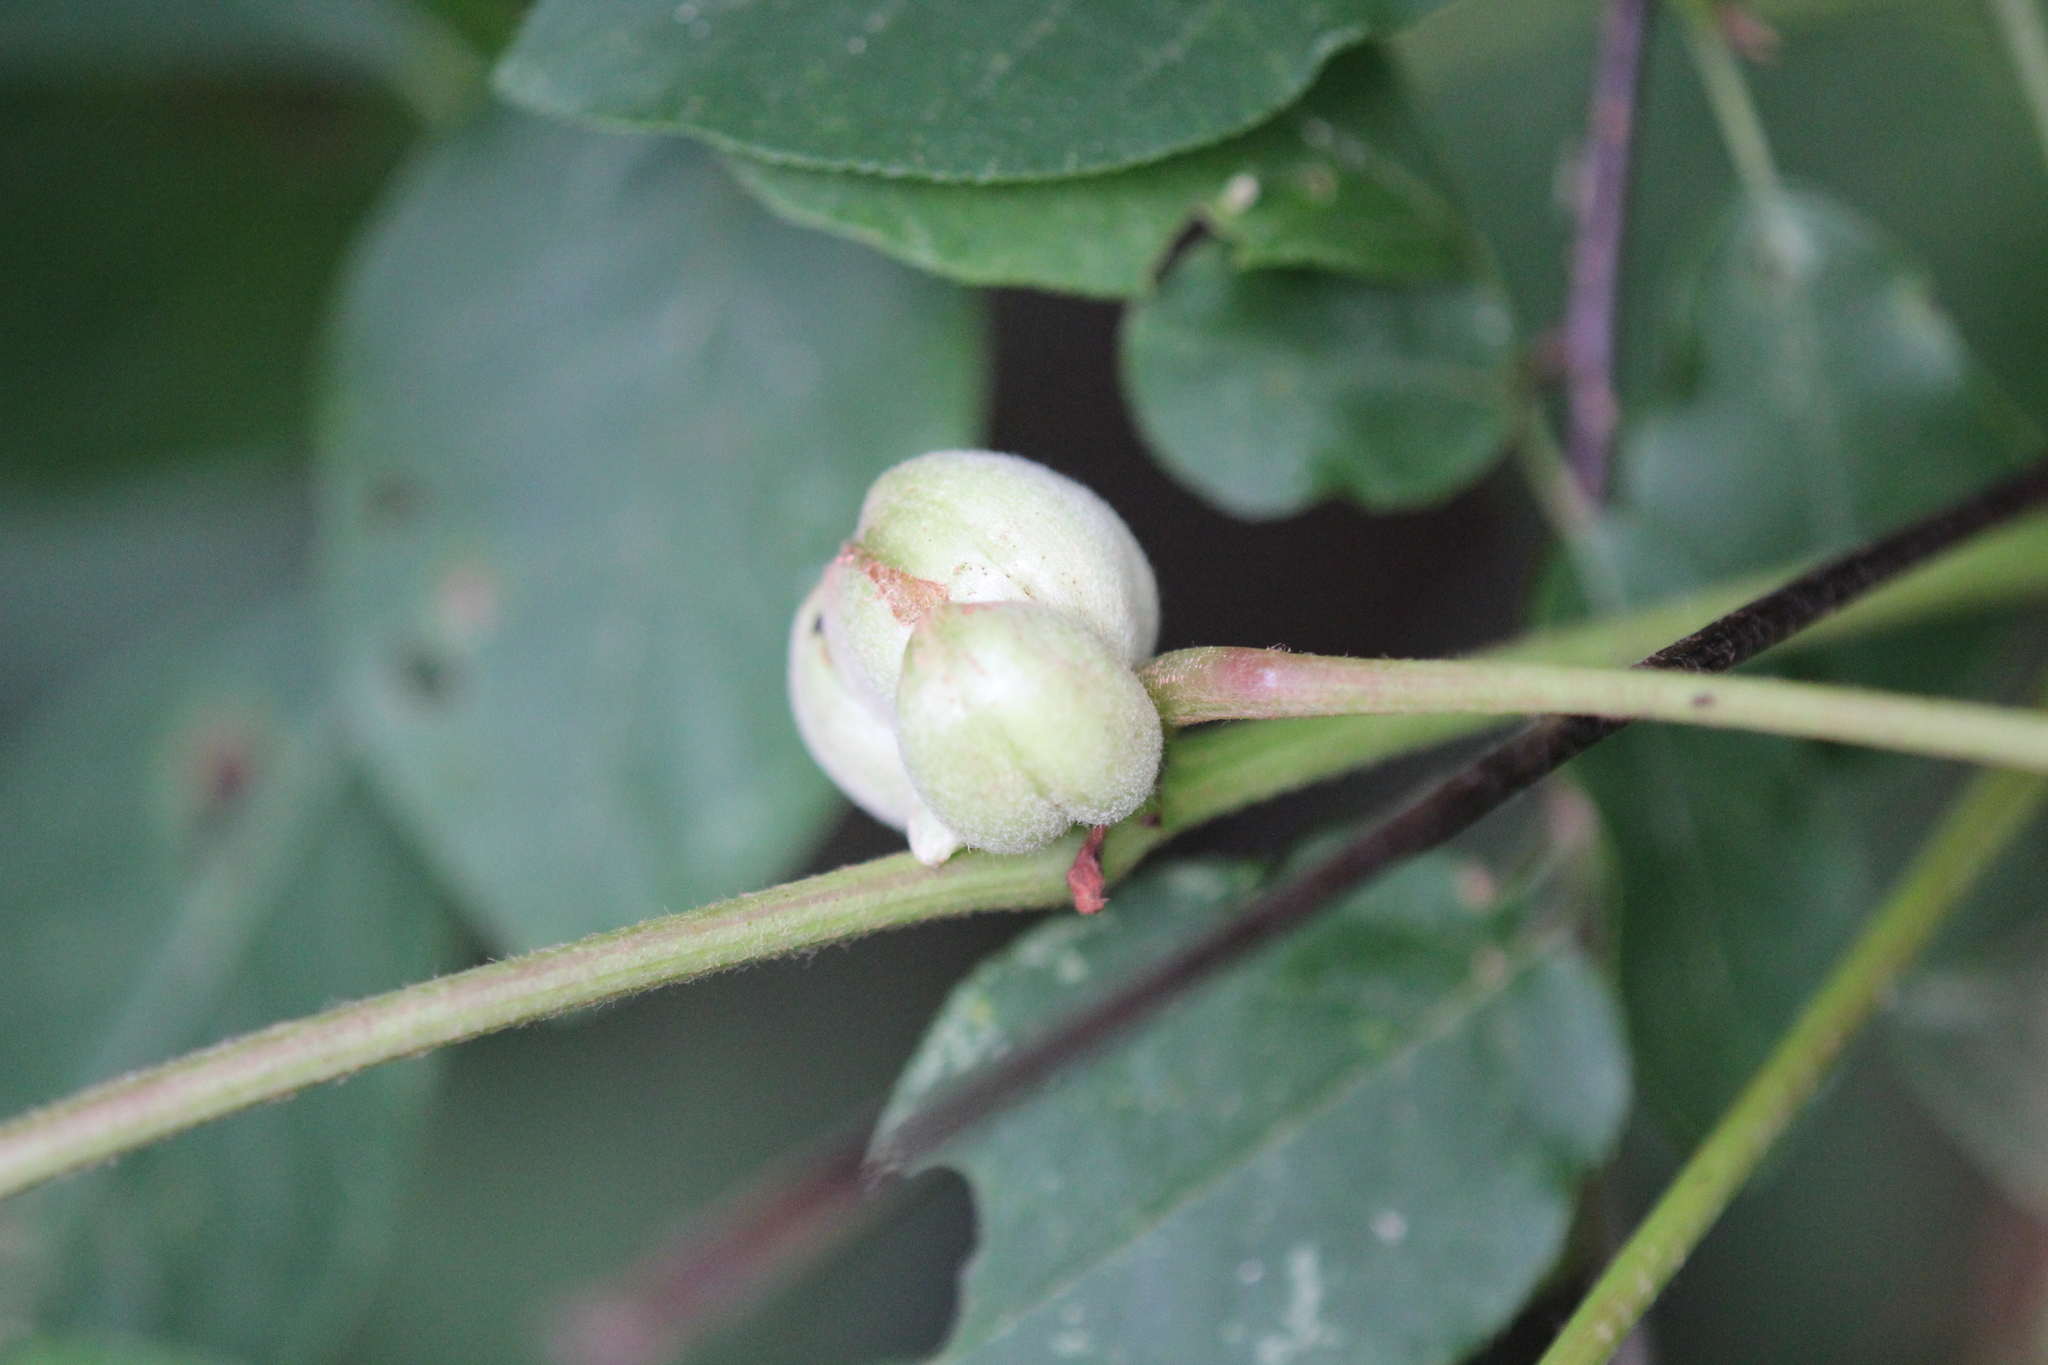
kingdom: Animalia
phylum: Arthropoda
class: Insecta
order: Diptera
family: Cecidomyiidae
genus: Ampelomyia
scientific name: Ampelomyia vitispomum
